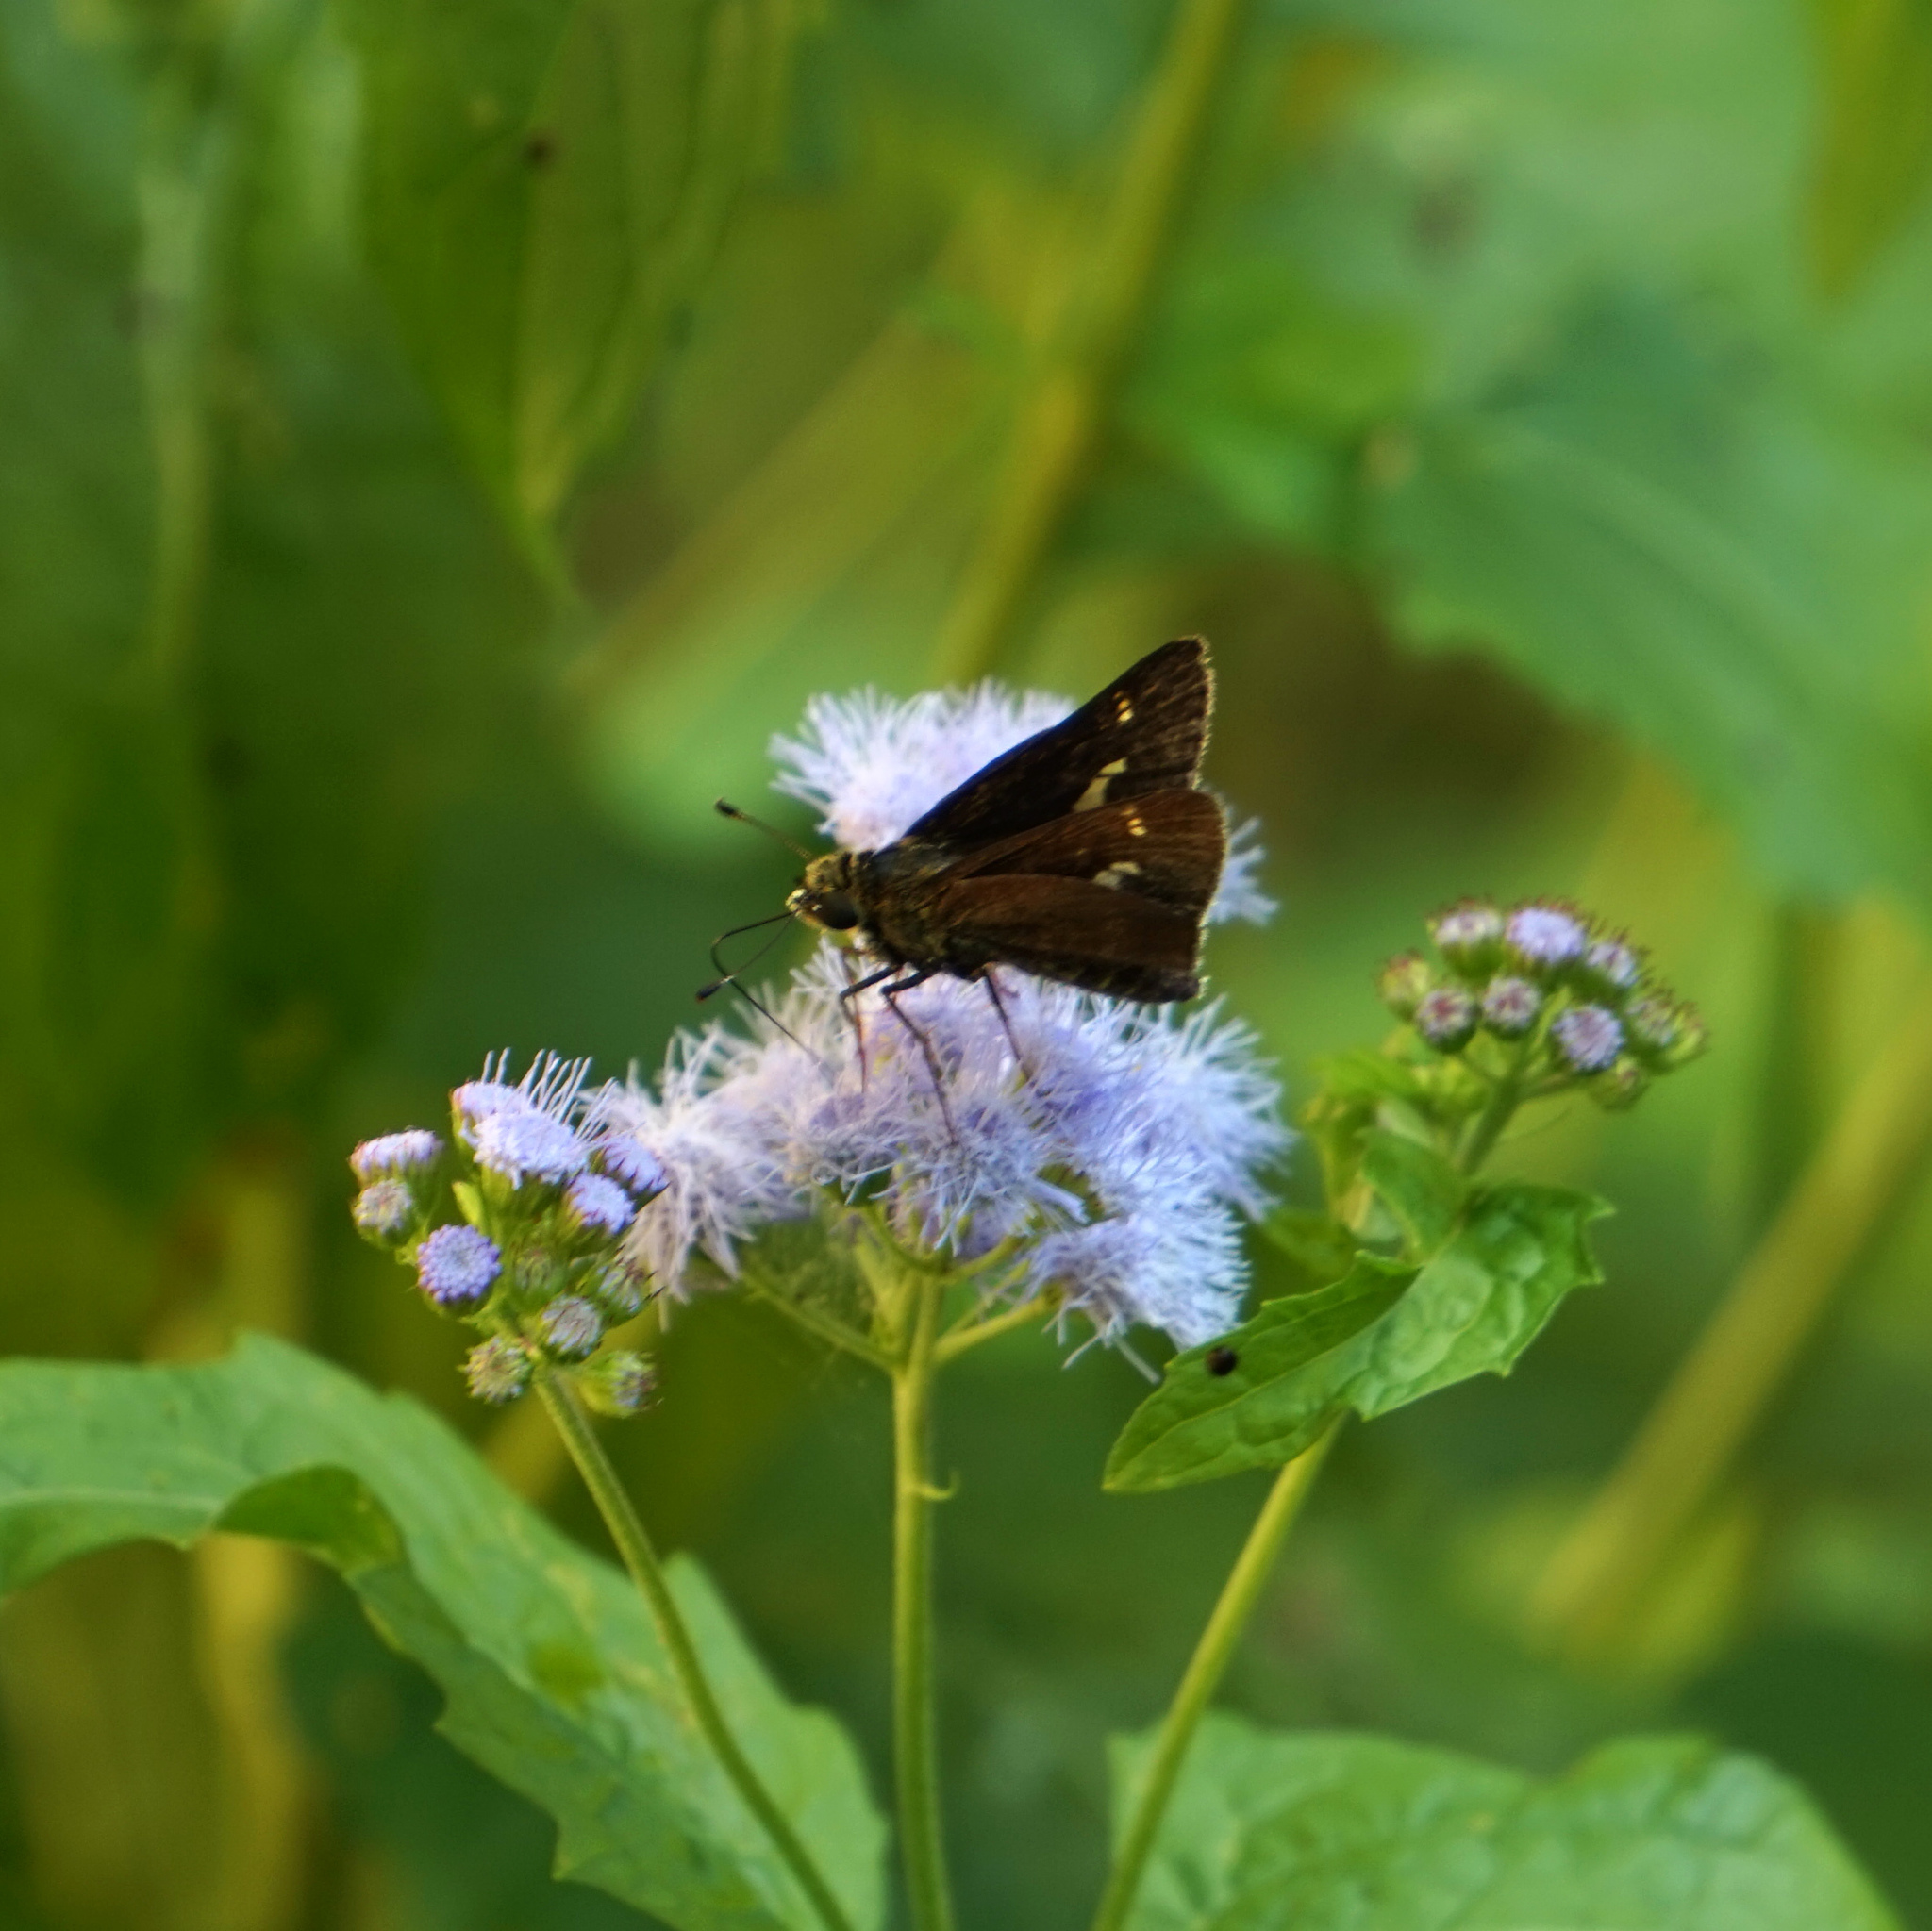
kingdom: Animalia
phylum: Arthropoda
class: Insecta
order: Lepidoptera
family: Hesperiidae
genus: Vernia
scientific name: Vernia verna
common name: Little glassywing
